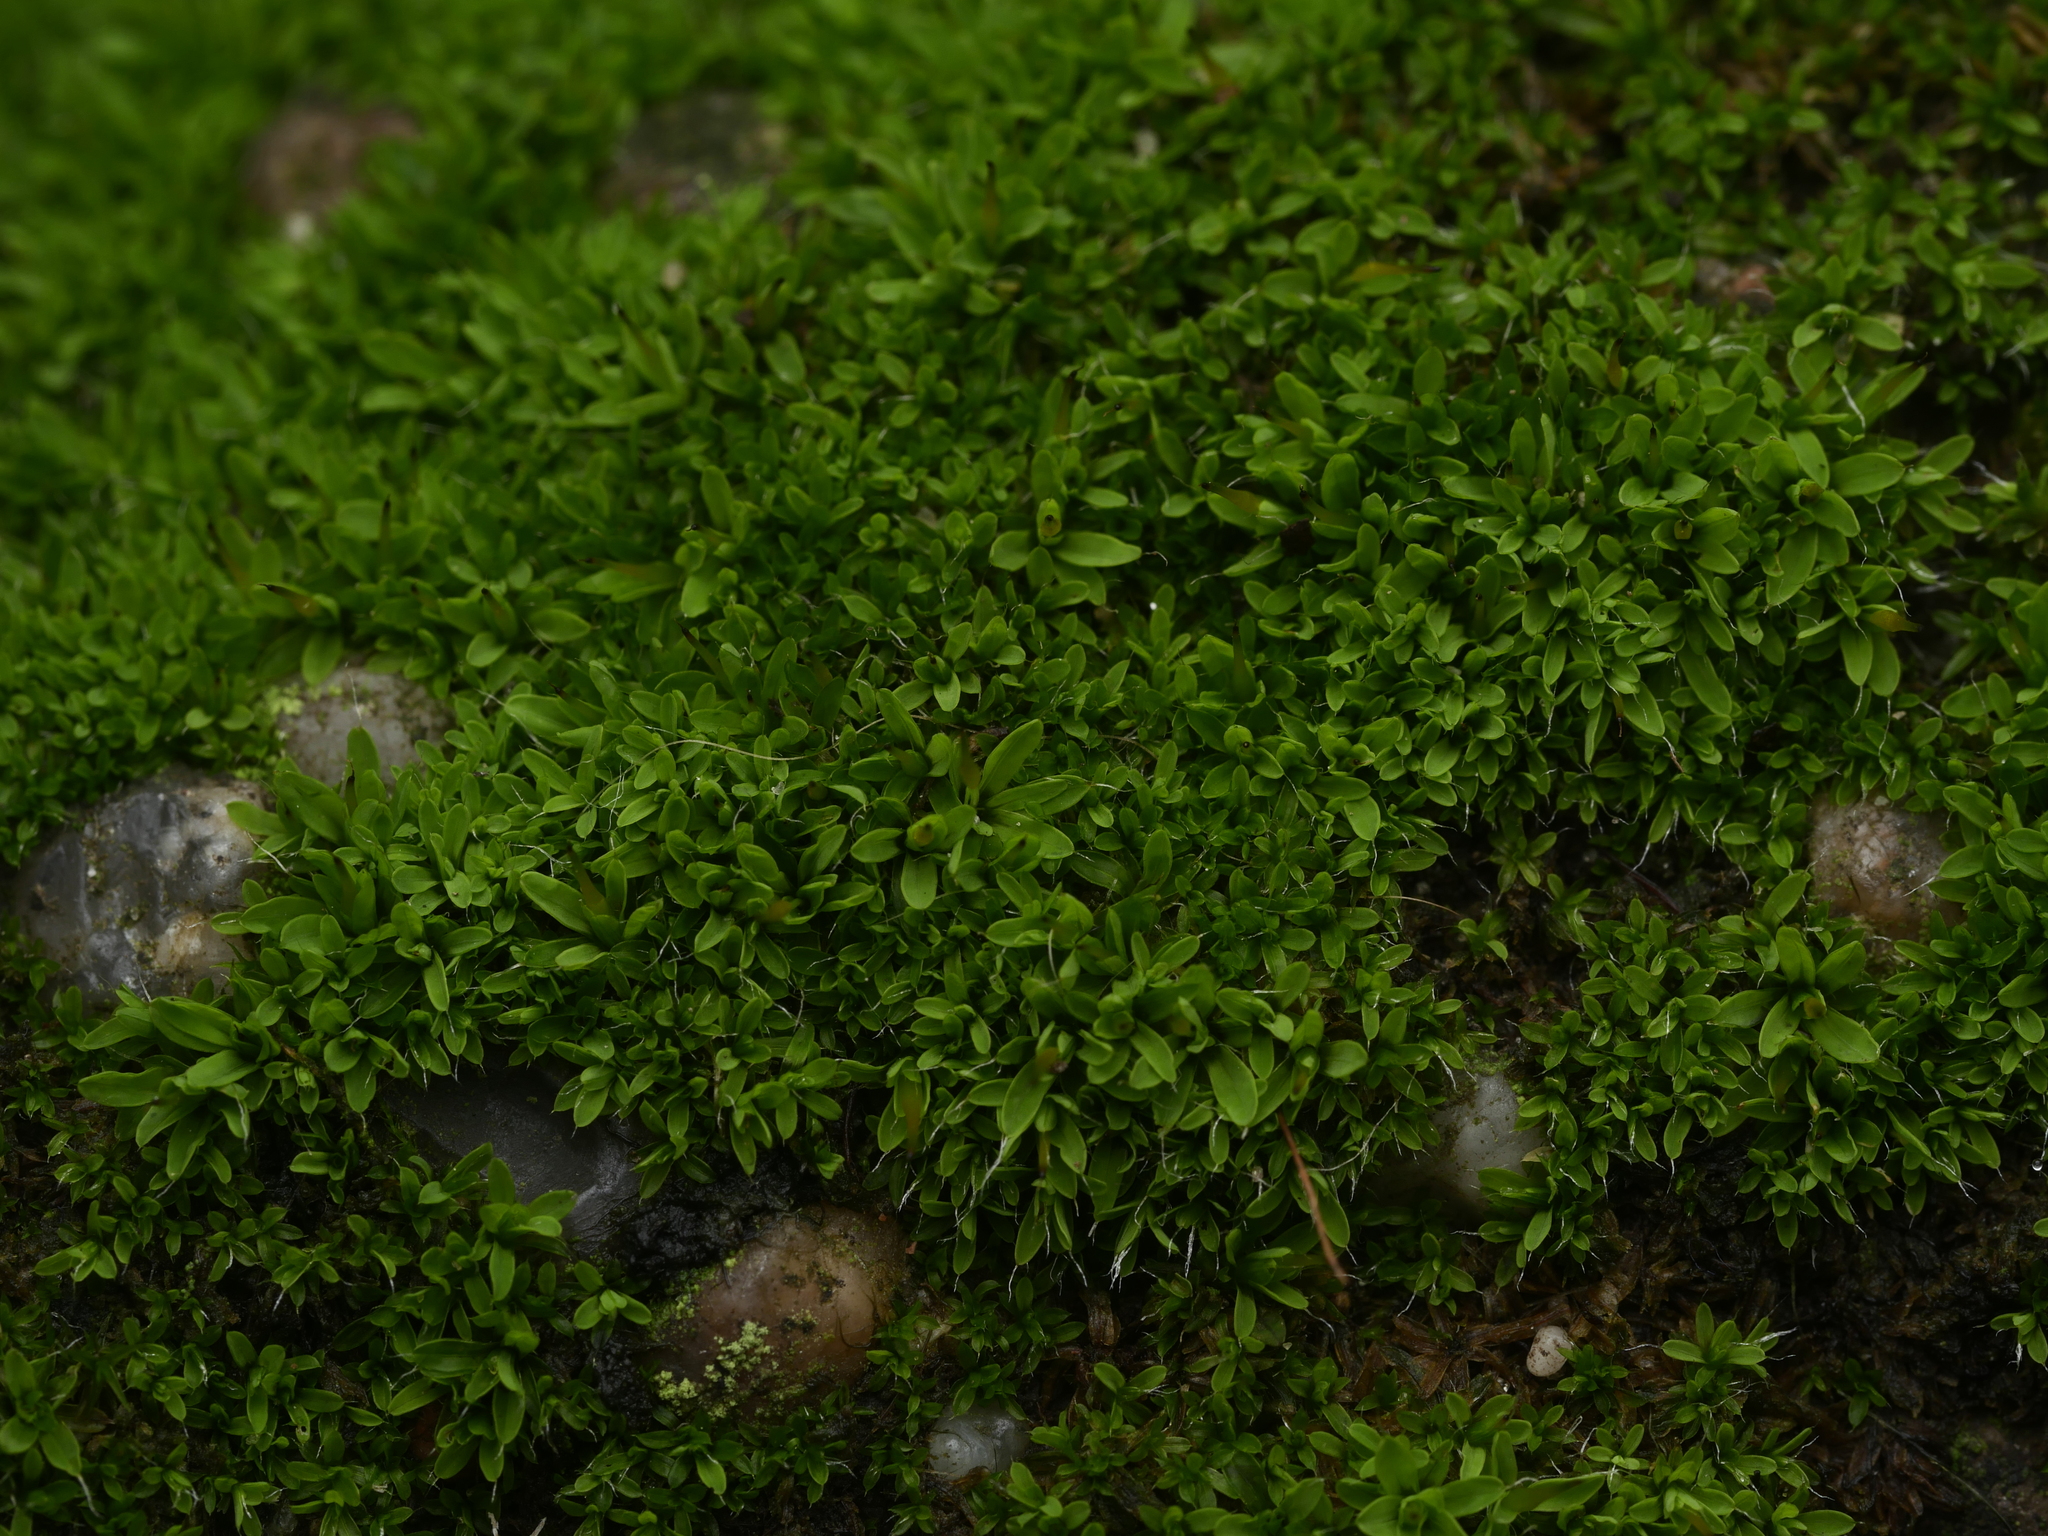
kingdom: Plantae
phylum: Bryophyta
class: Bryopsida
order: Pottiales
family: Pottiaceae
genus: Tortula
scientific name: Tortula muralis
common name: Wall screw-moss
